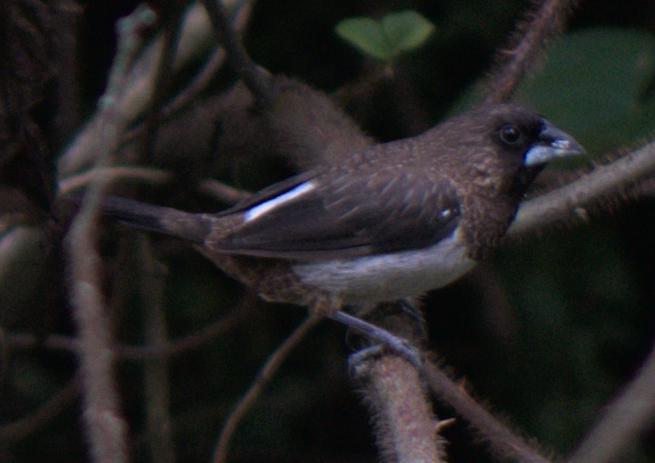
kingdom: Animalia
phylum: Chordata
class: Aves
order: Passeriformes
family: Estrildidae
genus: Lonchura
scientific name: Lonchura striata
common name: White-rumped munia
